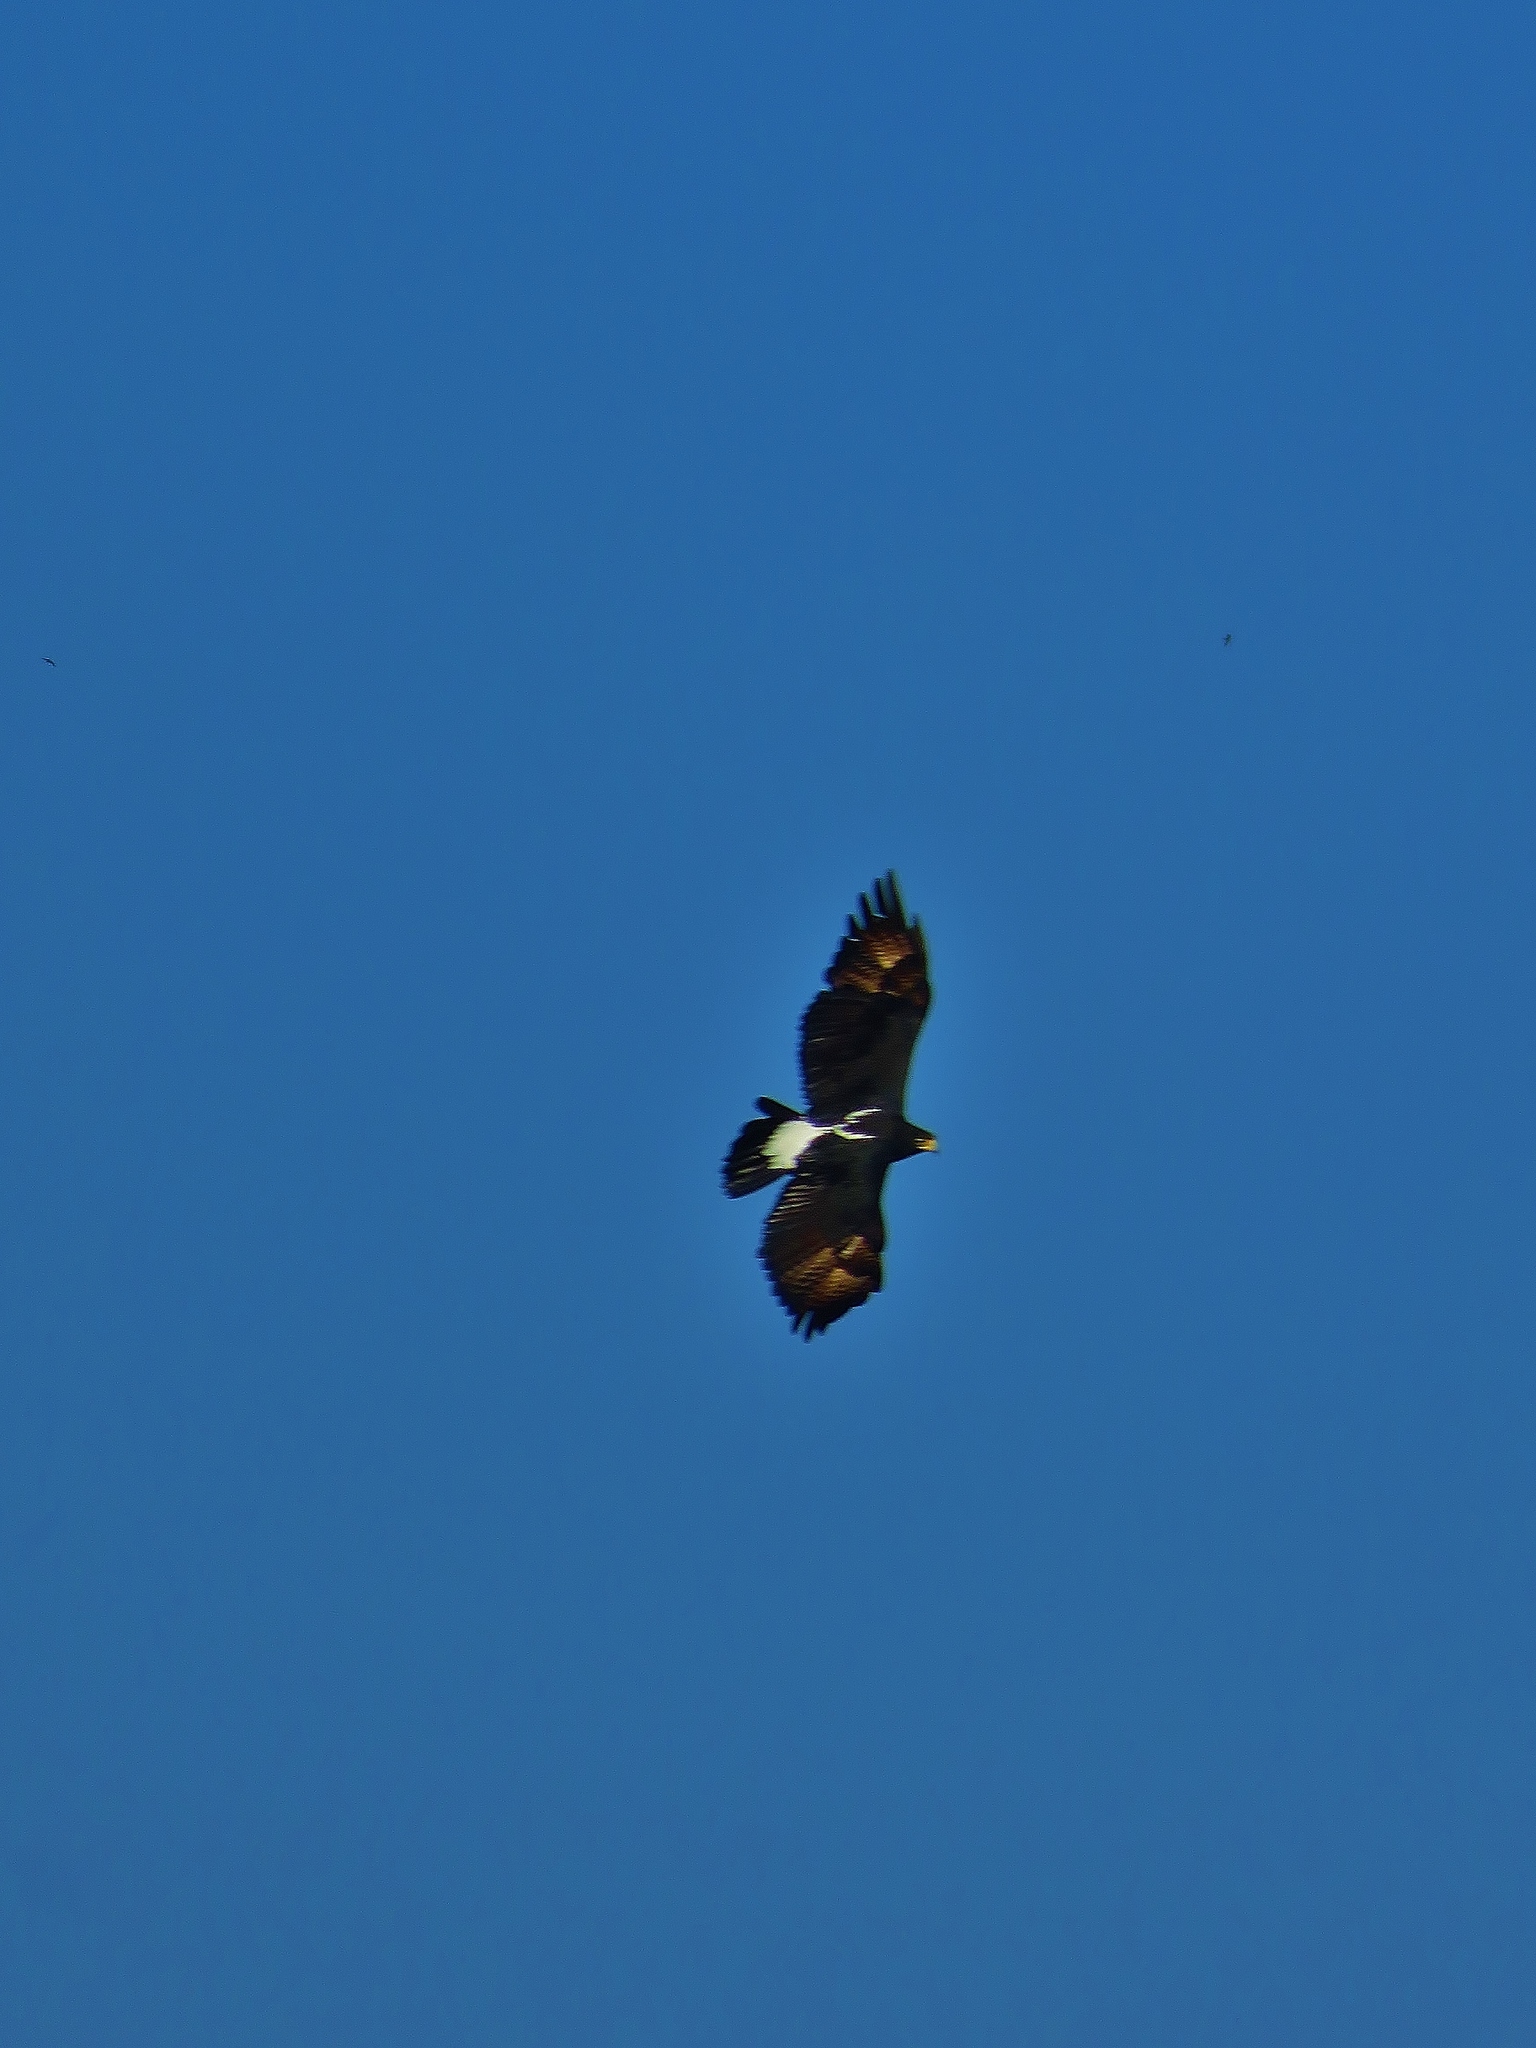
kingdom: Animalia
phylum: Chordata
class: Aves
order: Accipitriformes
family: Accipitridae
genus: Aquila
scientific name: Aquila verreauxii
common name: Verreaux's eagle
